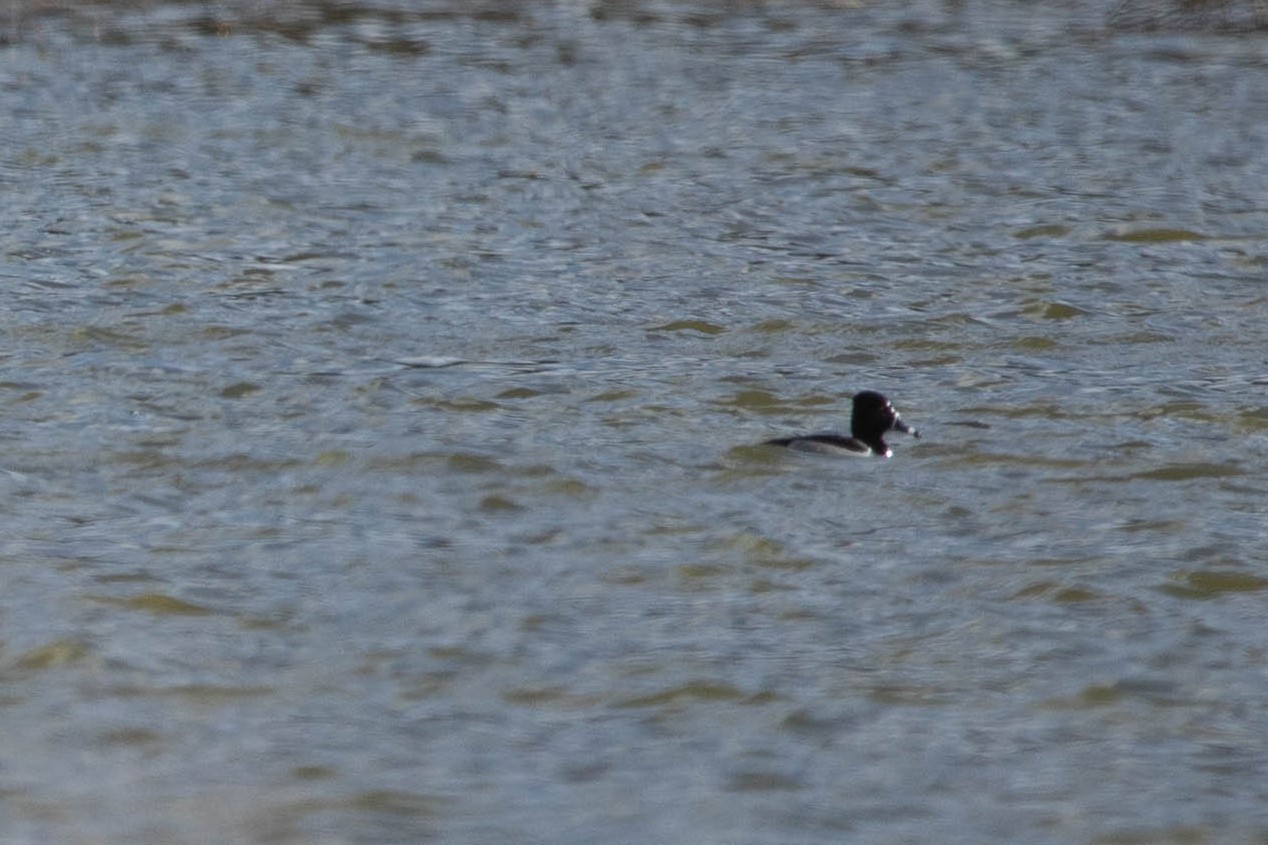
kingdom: Animalia
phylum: Chordata
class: Aves
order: Anseriformes
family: Anatidae
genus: Aythya
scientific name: Aythya collaris
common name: Ring-necked duck
